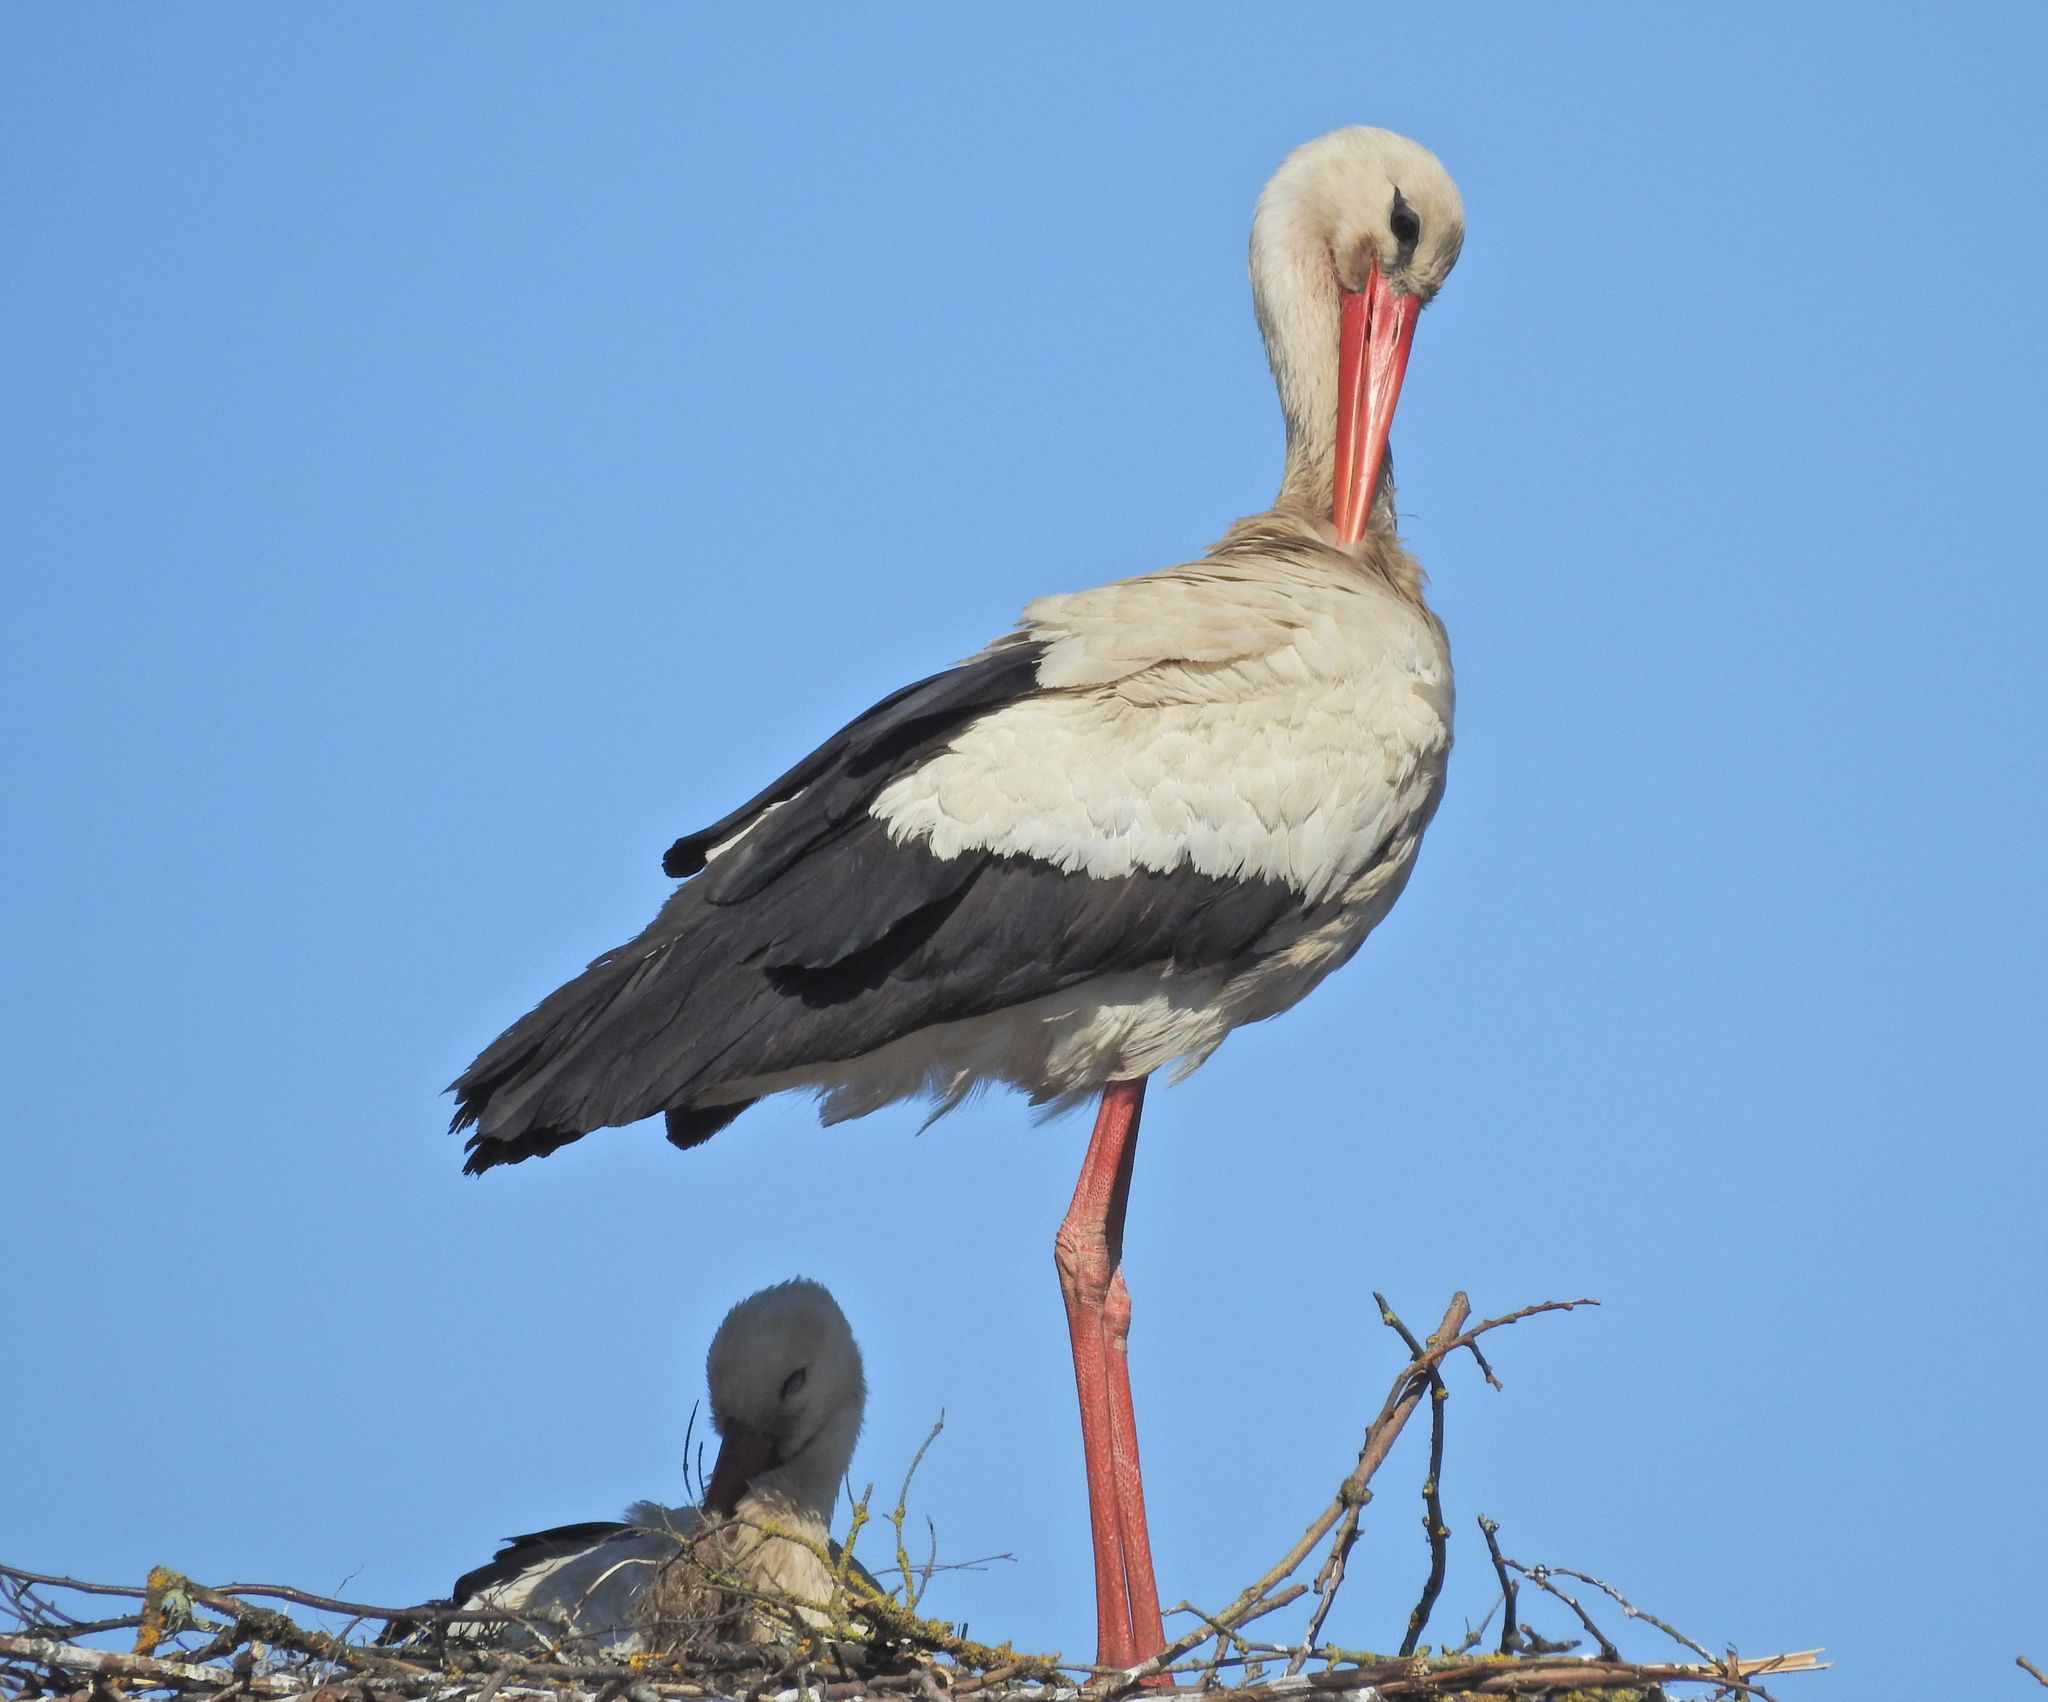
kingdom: Animalia
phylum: Chordata
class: Aves
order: Ciconiiformes
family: Ciconiidae
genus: Ciconia
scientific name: Ciconia ciconia
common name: White stork
